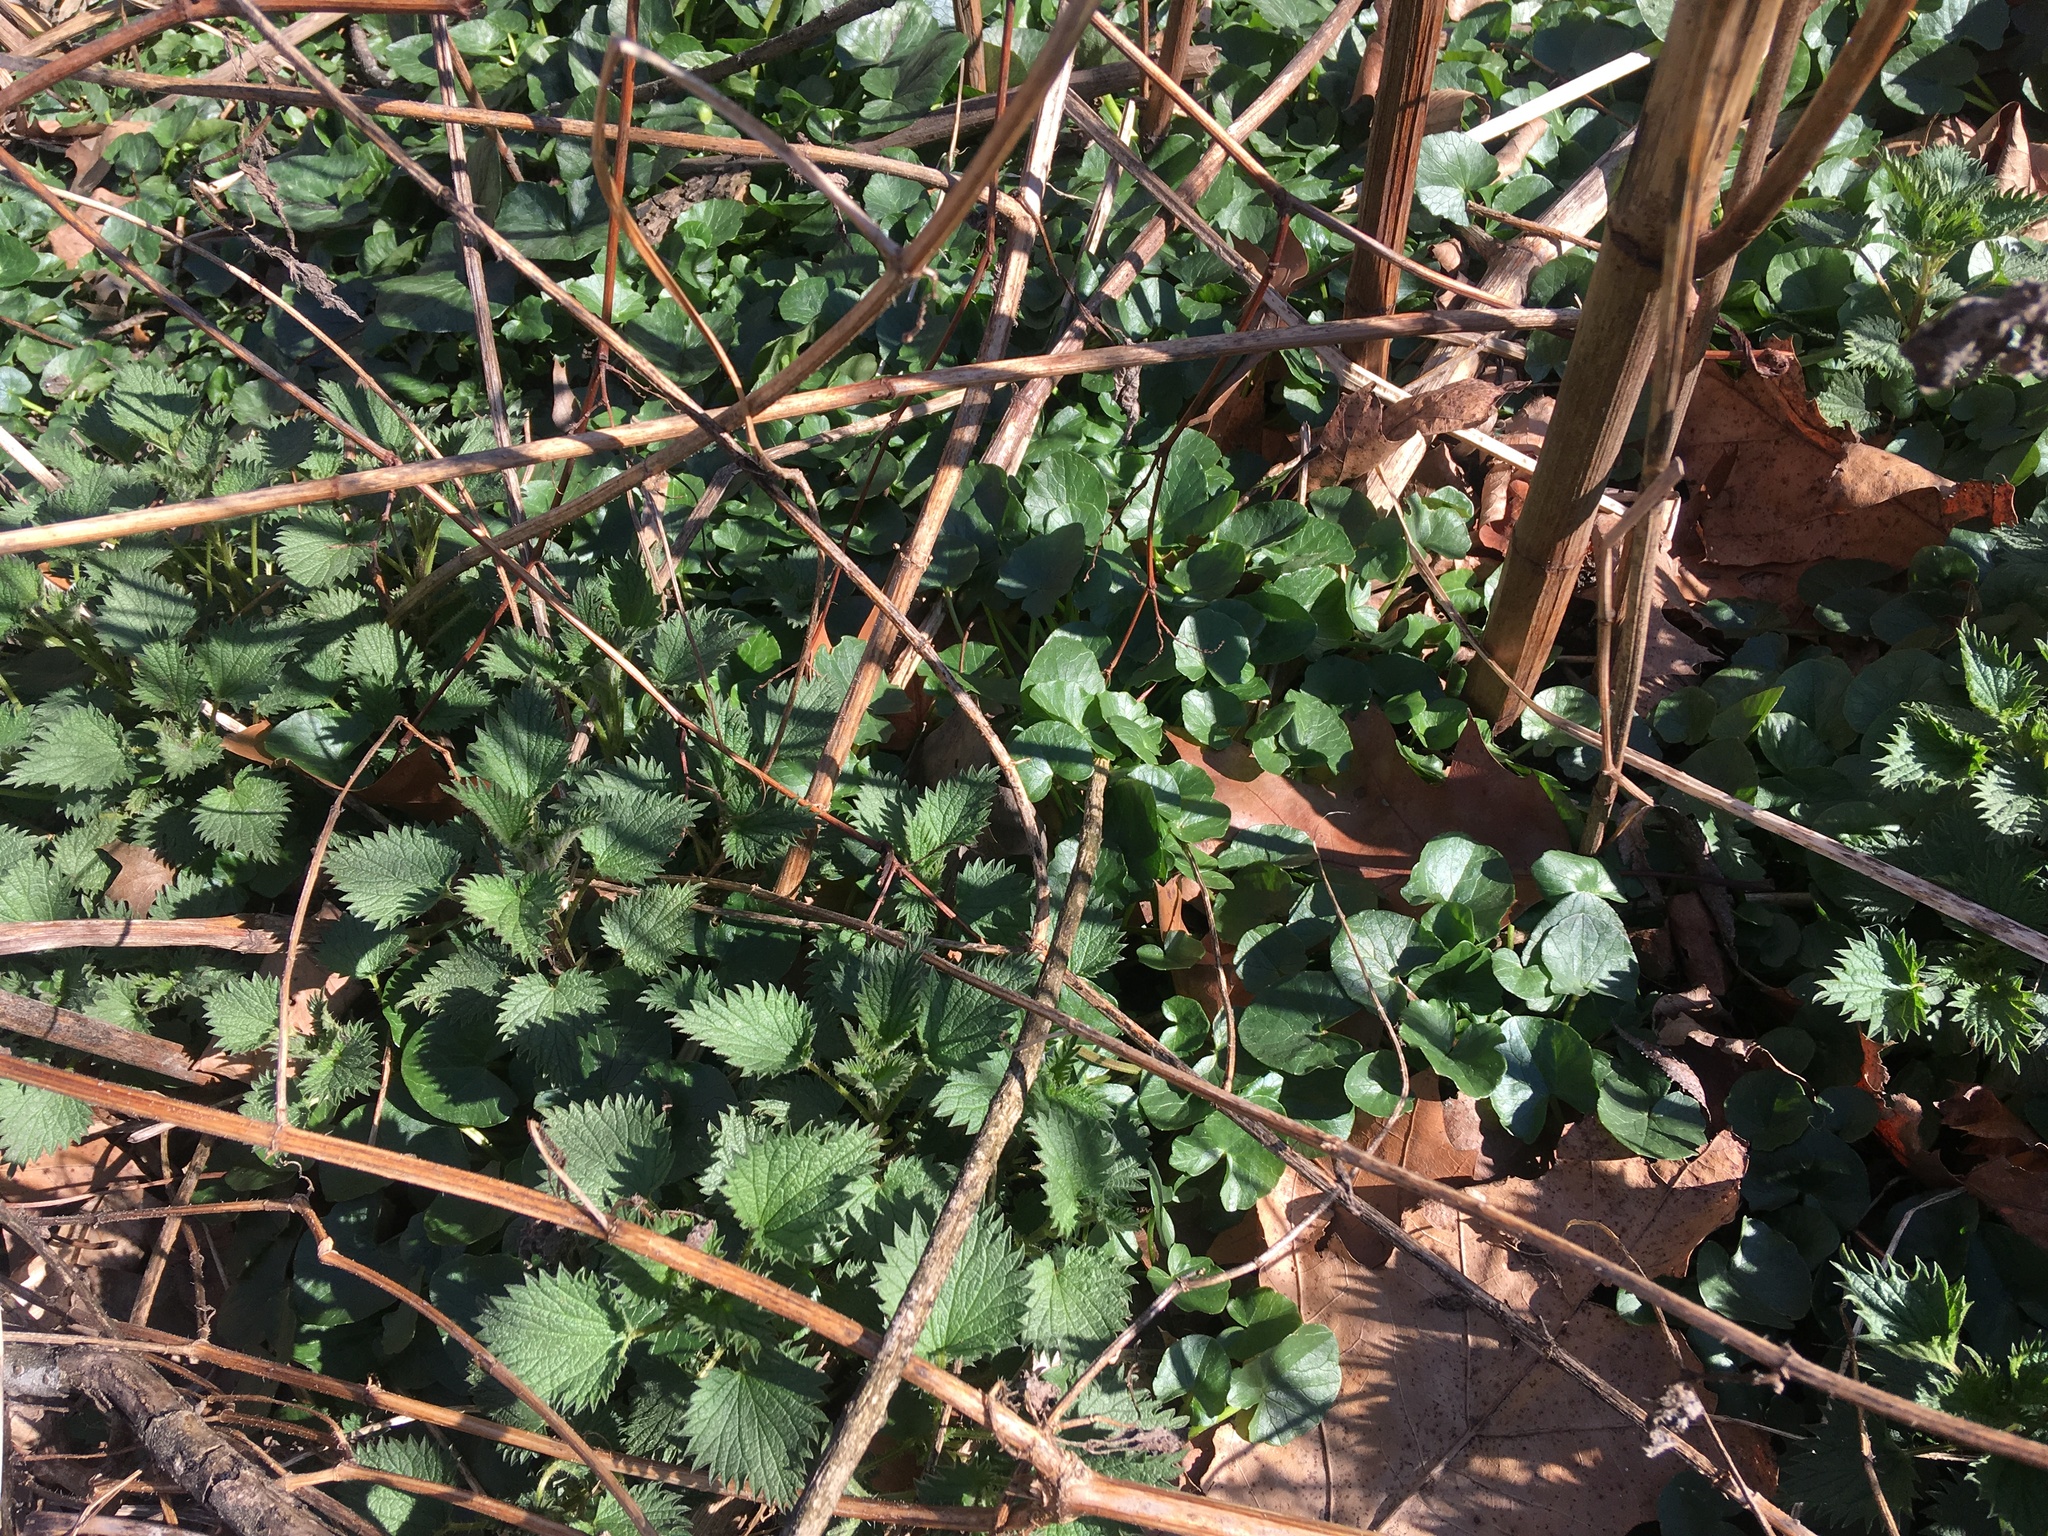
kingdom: Plantae
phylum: Tracheophyta
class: Magnoliopsida
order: Ranunculales
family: Ranunculaceae
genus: Ficaria
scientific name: Ficaria verna
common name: Lesser celandine
